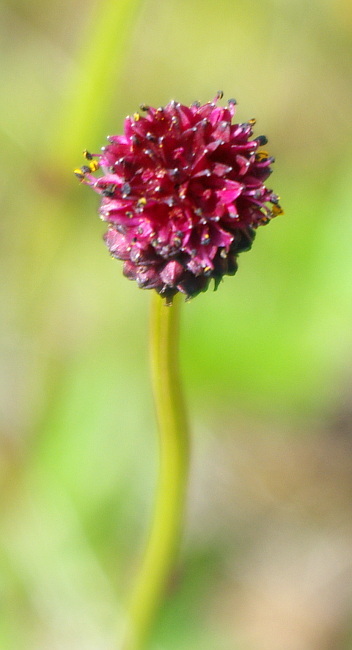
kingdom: Plantae
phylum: Tracheophyta
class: Magnoliopsida
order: Rosales
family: Rosaceae
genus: Sanguisorba
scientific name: Sanguisorba officinalis
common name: Great burnet
